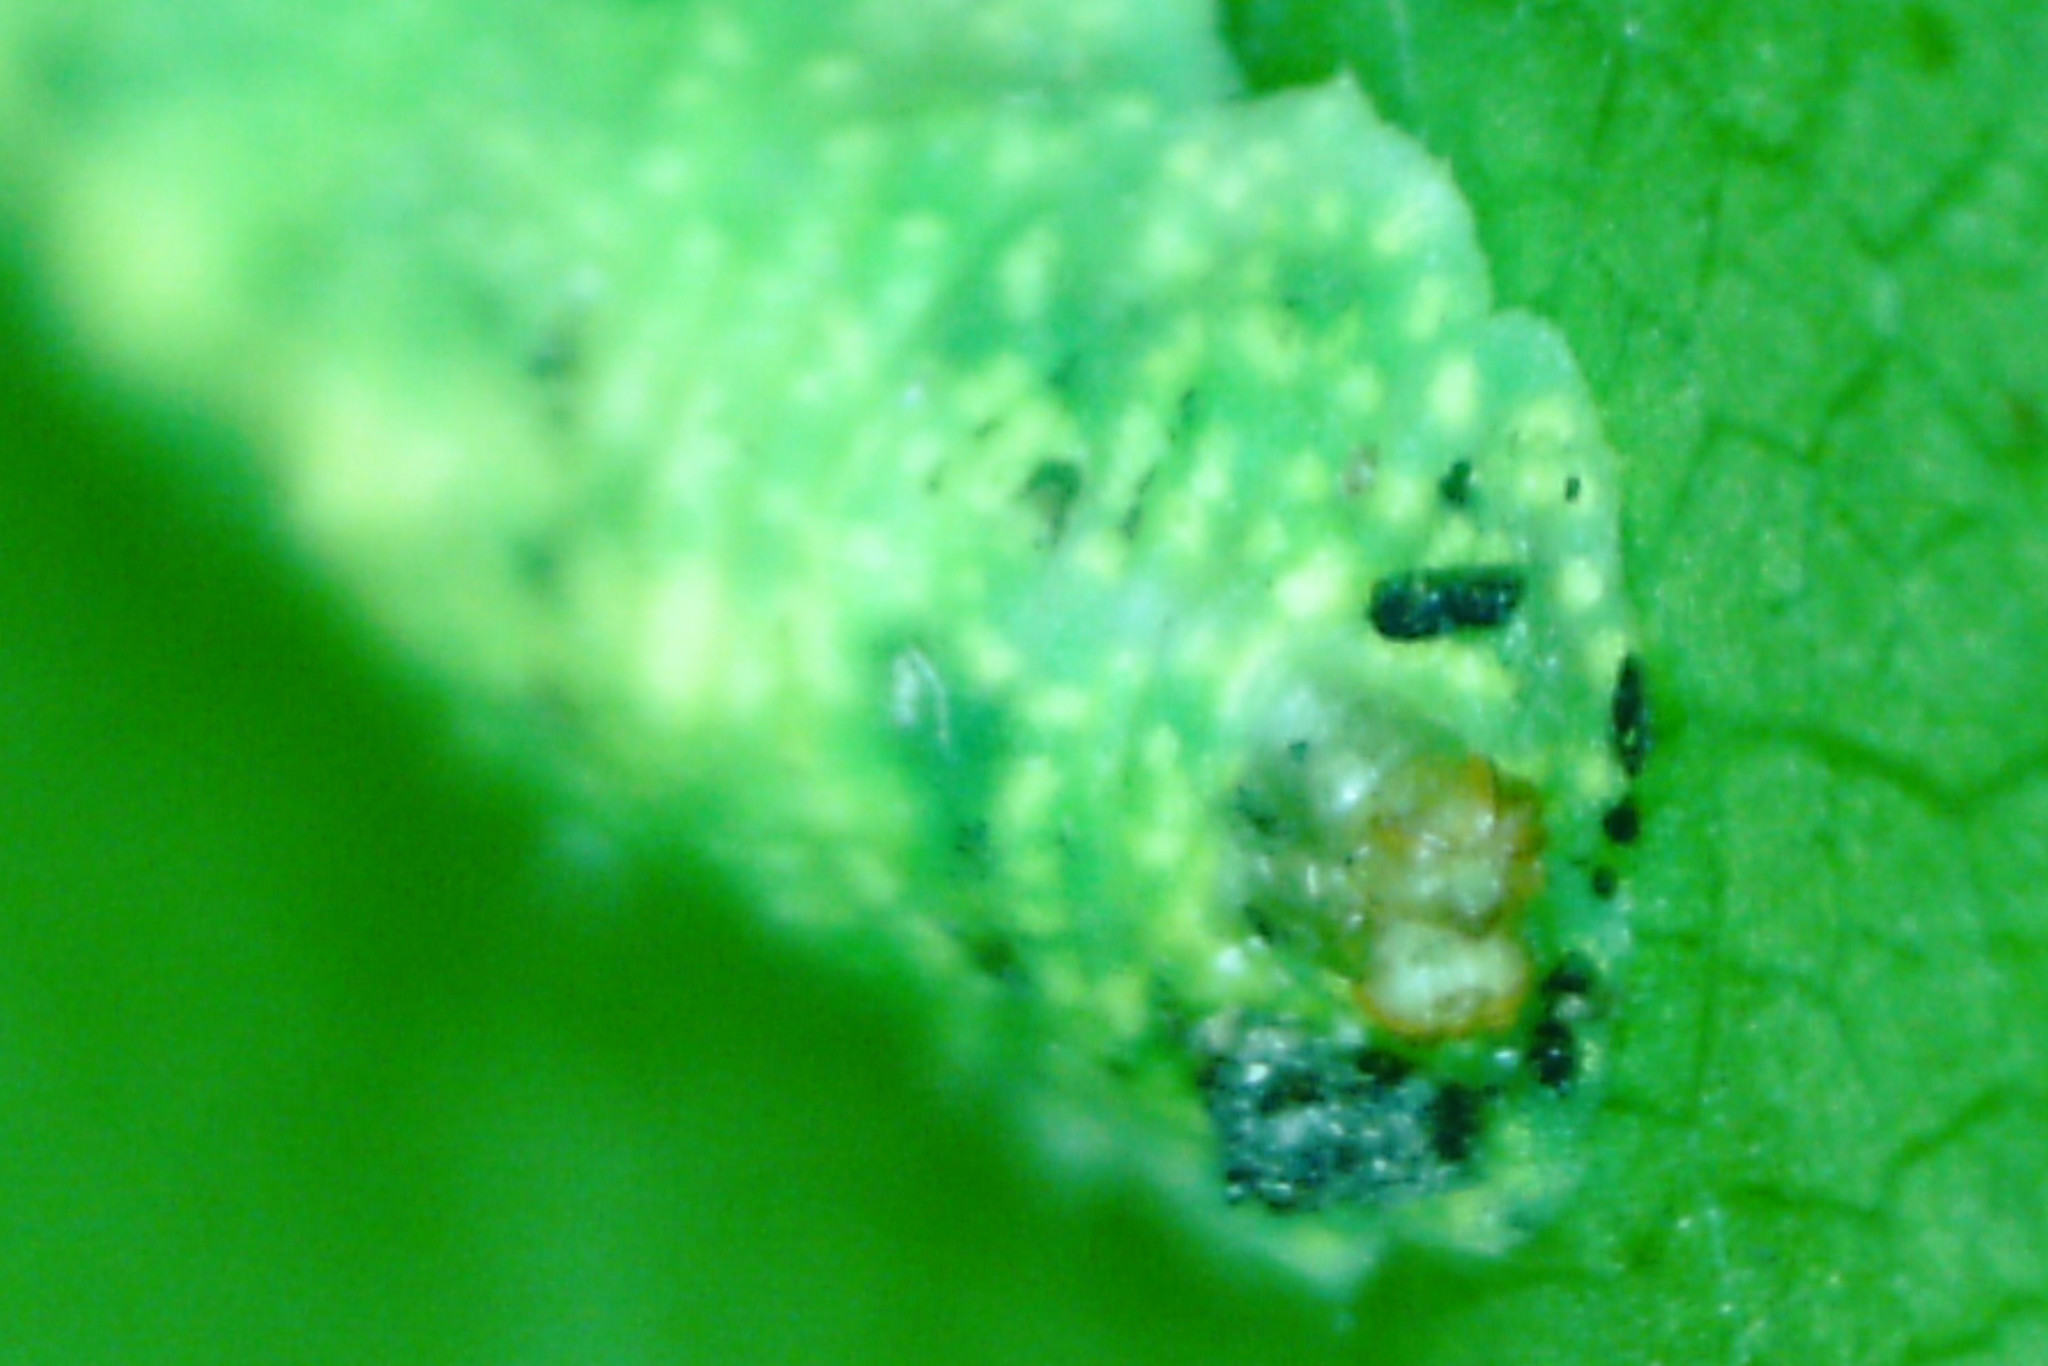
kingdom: Animalia
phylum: Arthropoda
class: Insecta
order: Diptera
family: Syrphidae
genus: Epistrophe
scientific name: Epistrophe grossulariae
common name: Black-horned smoothtail
